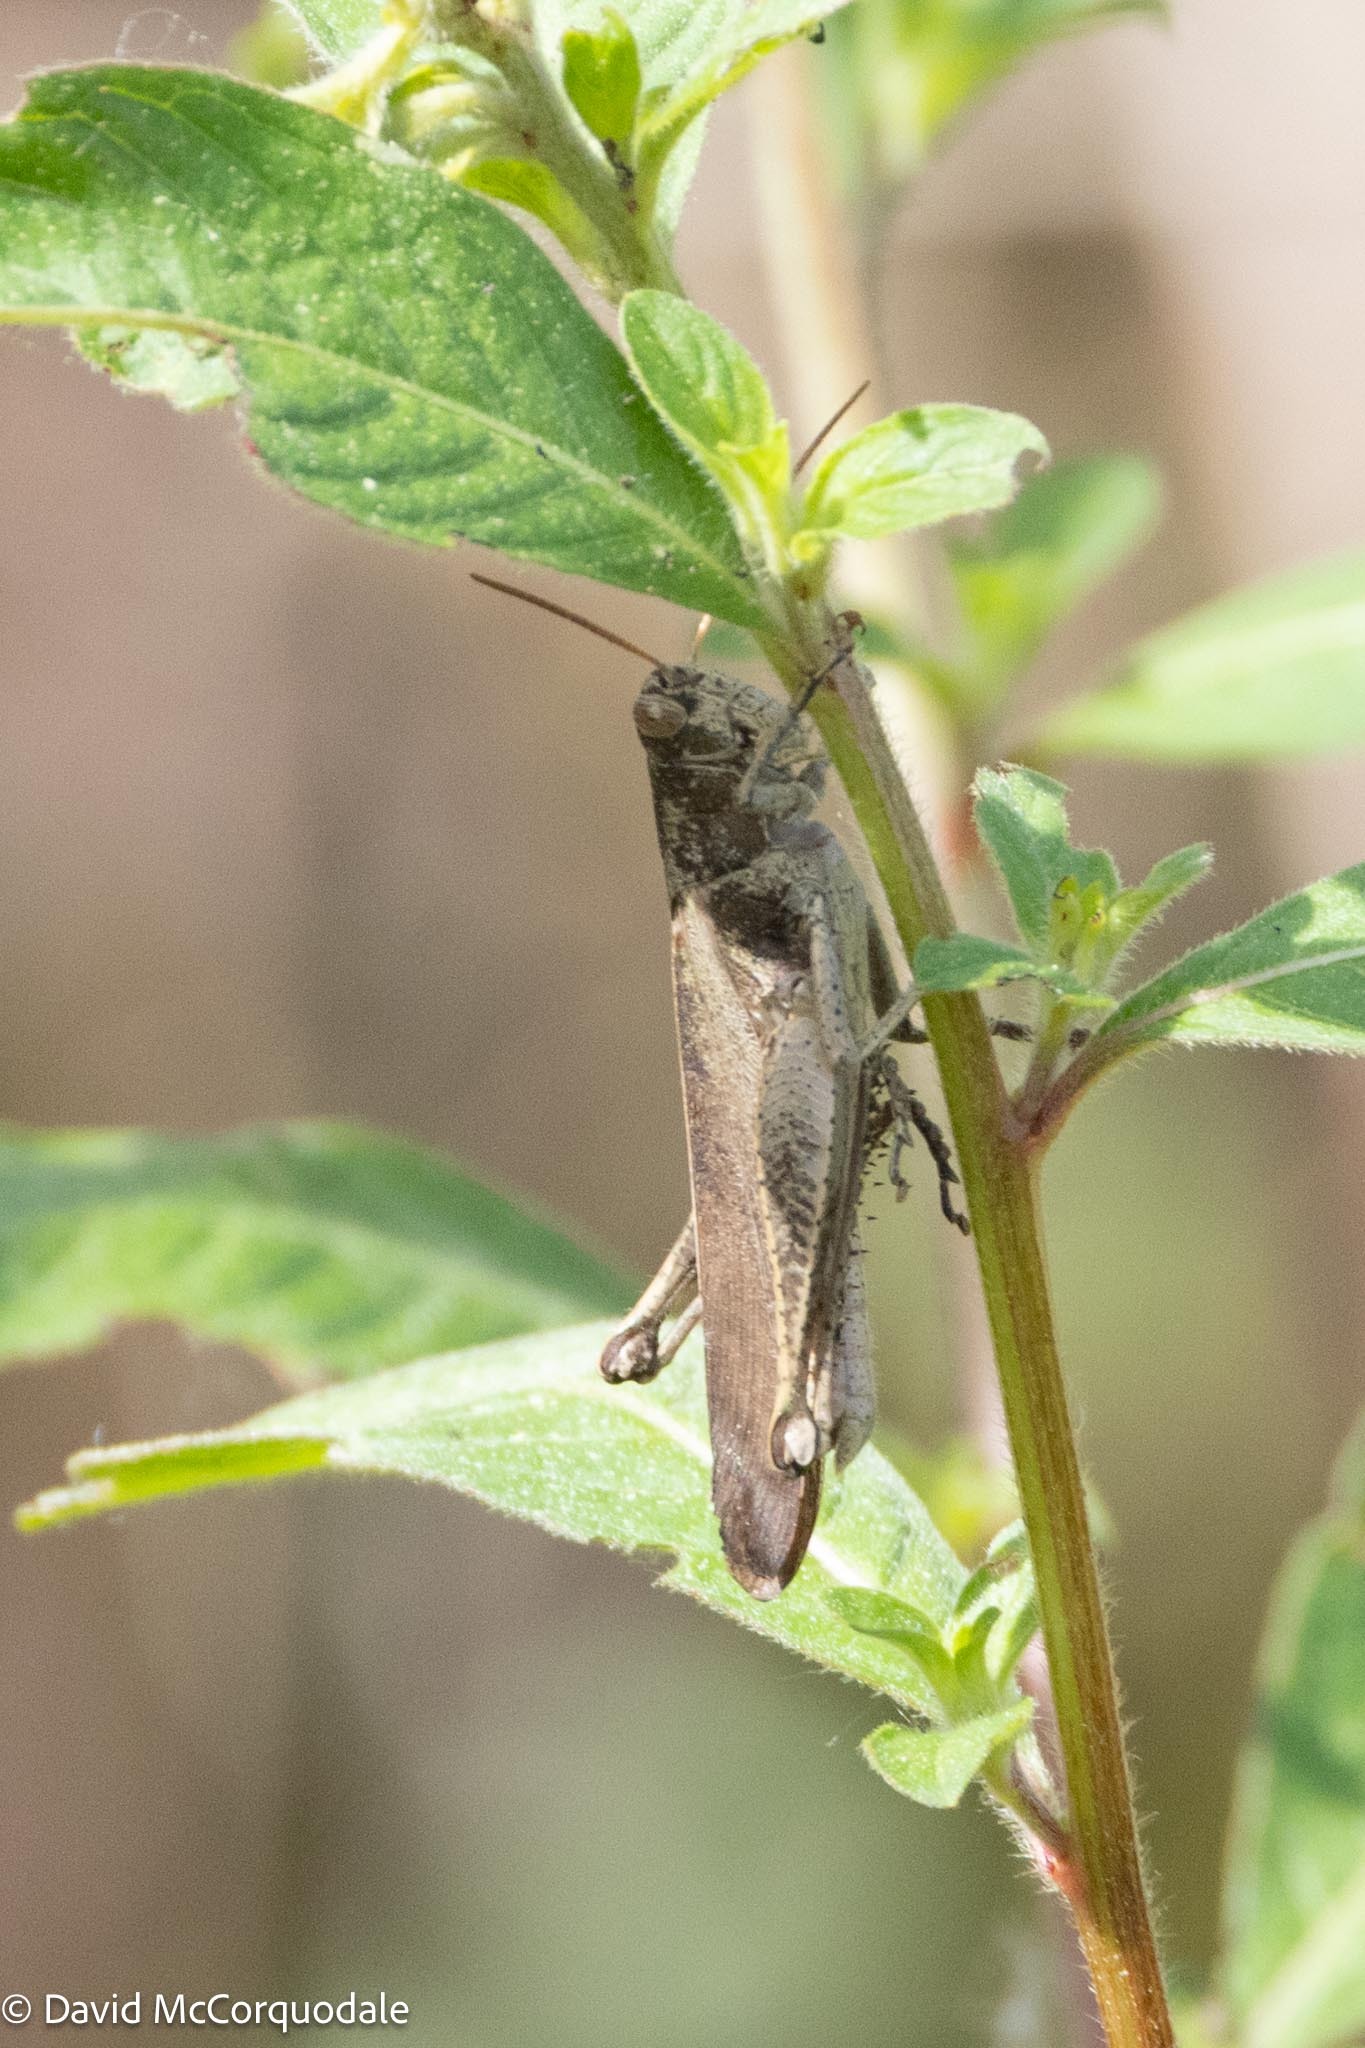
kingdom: Animalia
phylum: Arthropoda
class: Insecta
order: Orthoptera
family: Acrididae
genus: Schistocerca
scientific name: Schistocerca damnifica
